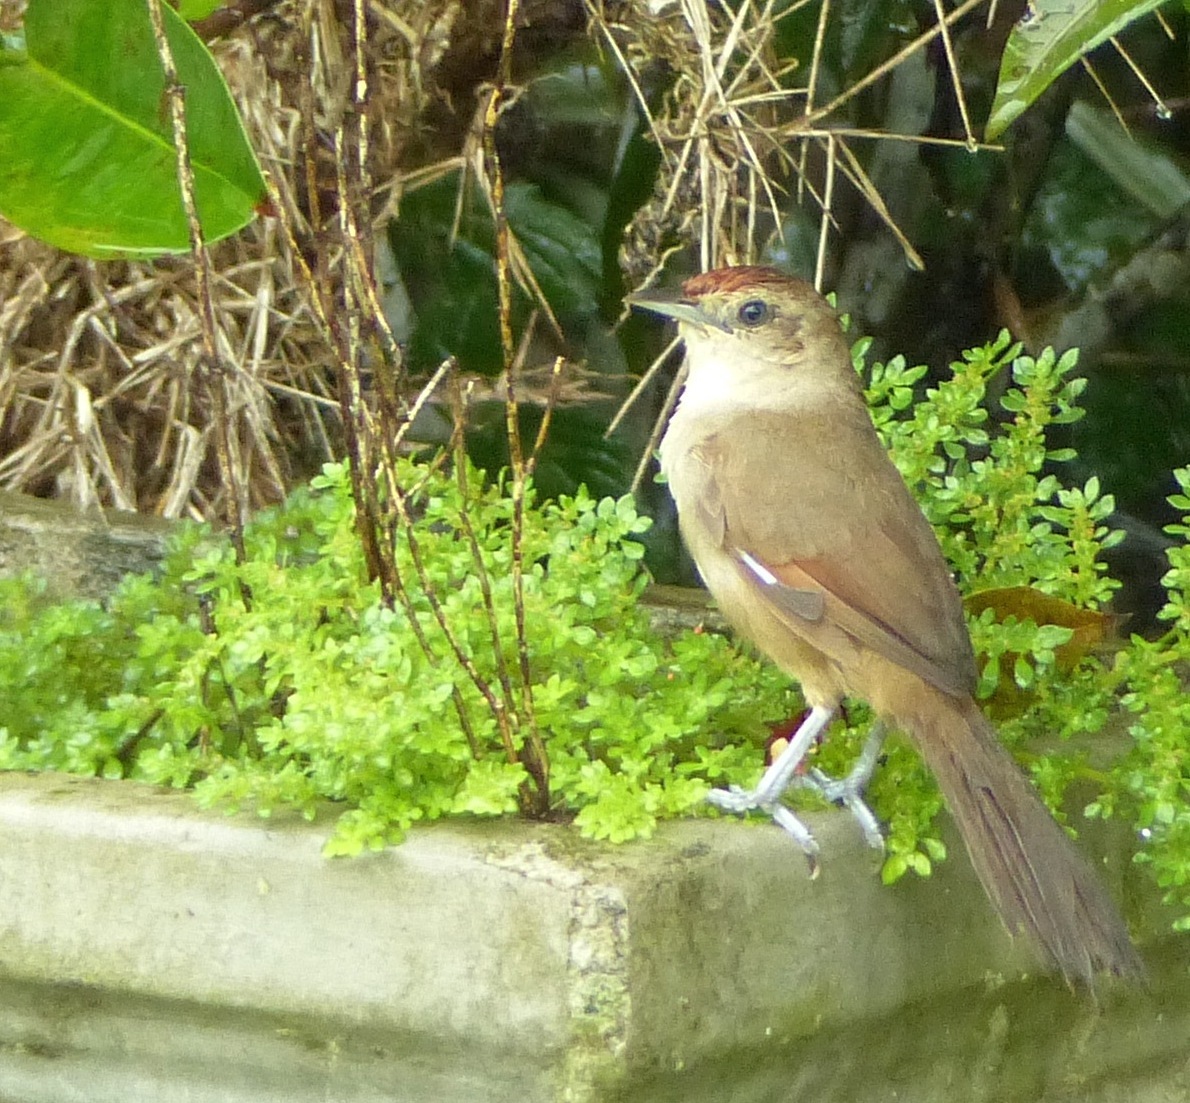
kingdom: Animalia
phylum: Chordata
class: Aves
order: Passeriformes
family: Furnariidae
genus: Phacellodomus
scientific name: Phacellodomus rufifrons
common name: Rufous-fronted thornbird
